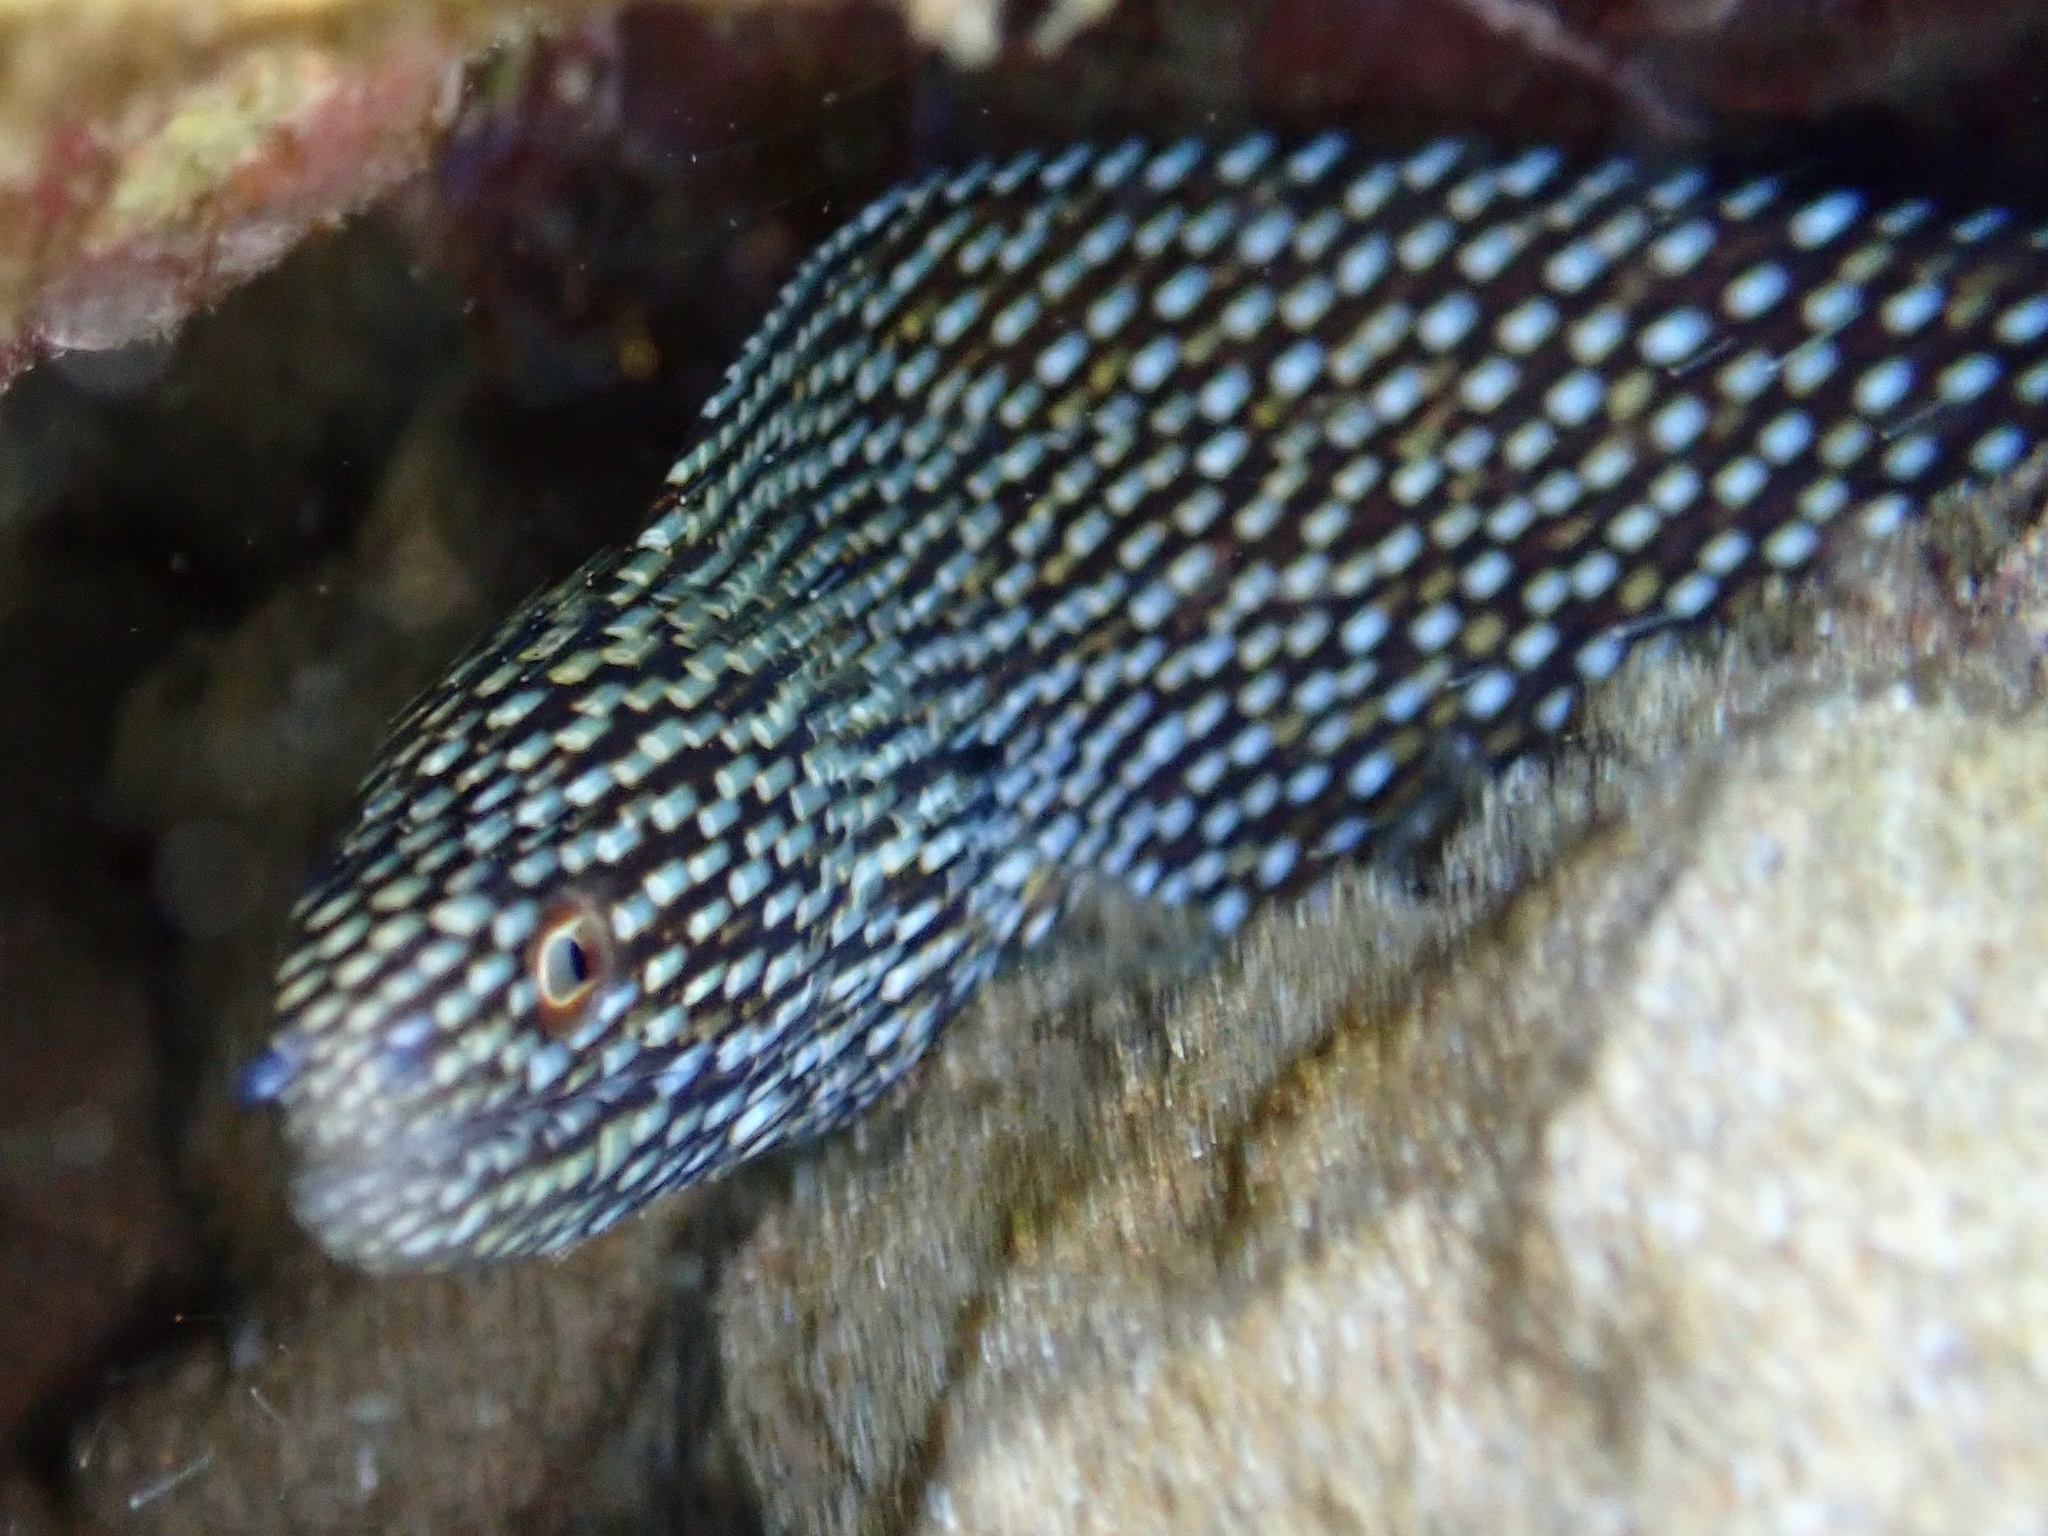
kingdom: Animalia
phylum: Chordata
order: Anguilliformes
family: Muraenidae
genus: Gymnothorax
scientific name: Gymnothorax meleagris
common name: Guineafowl moray
